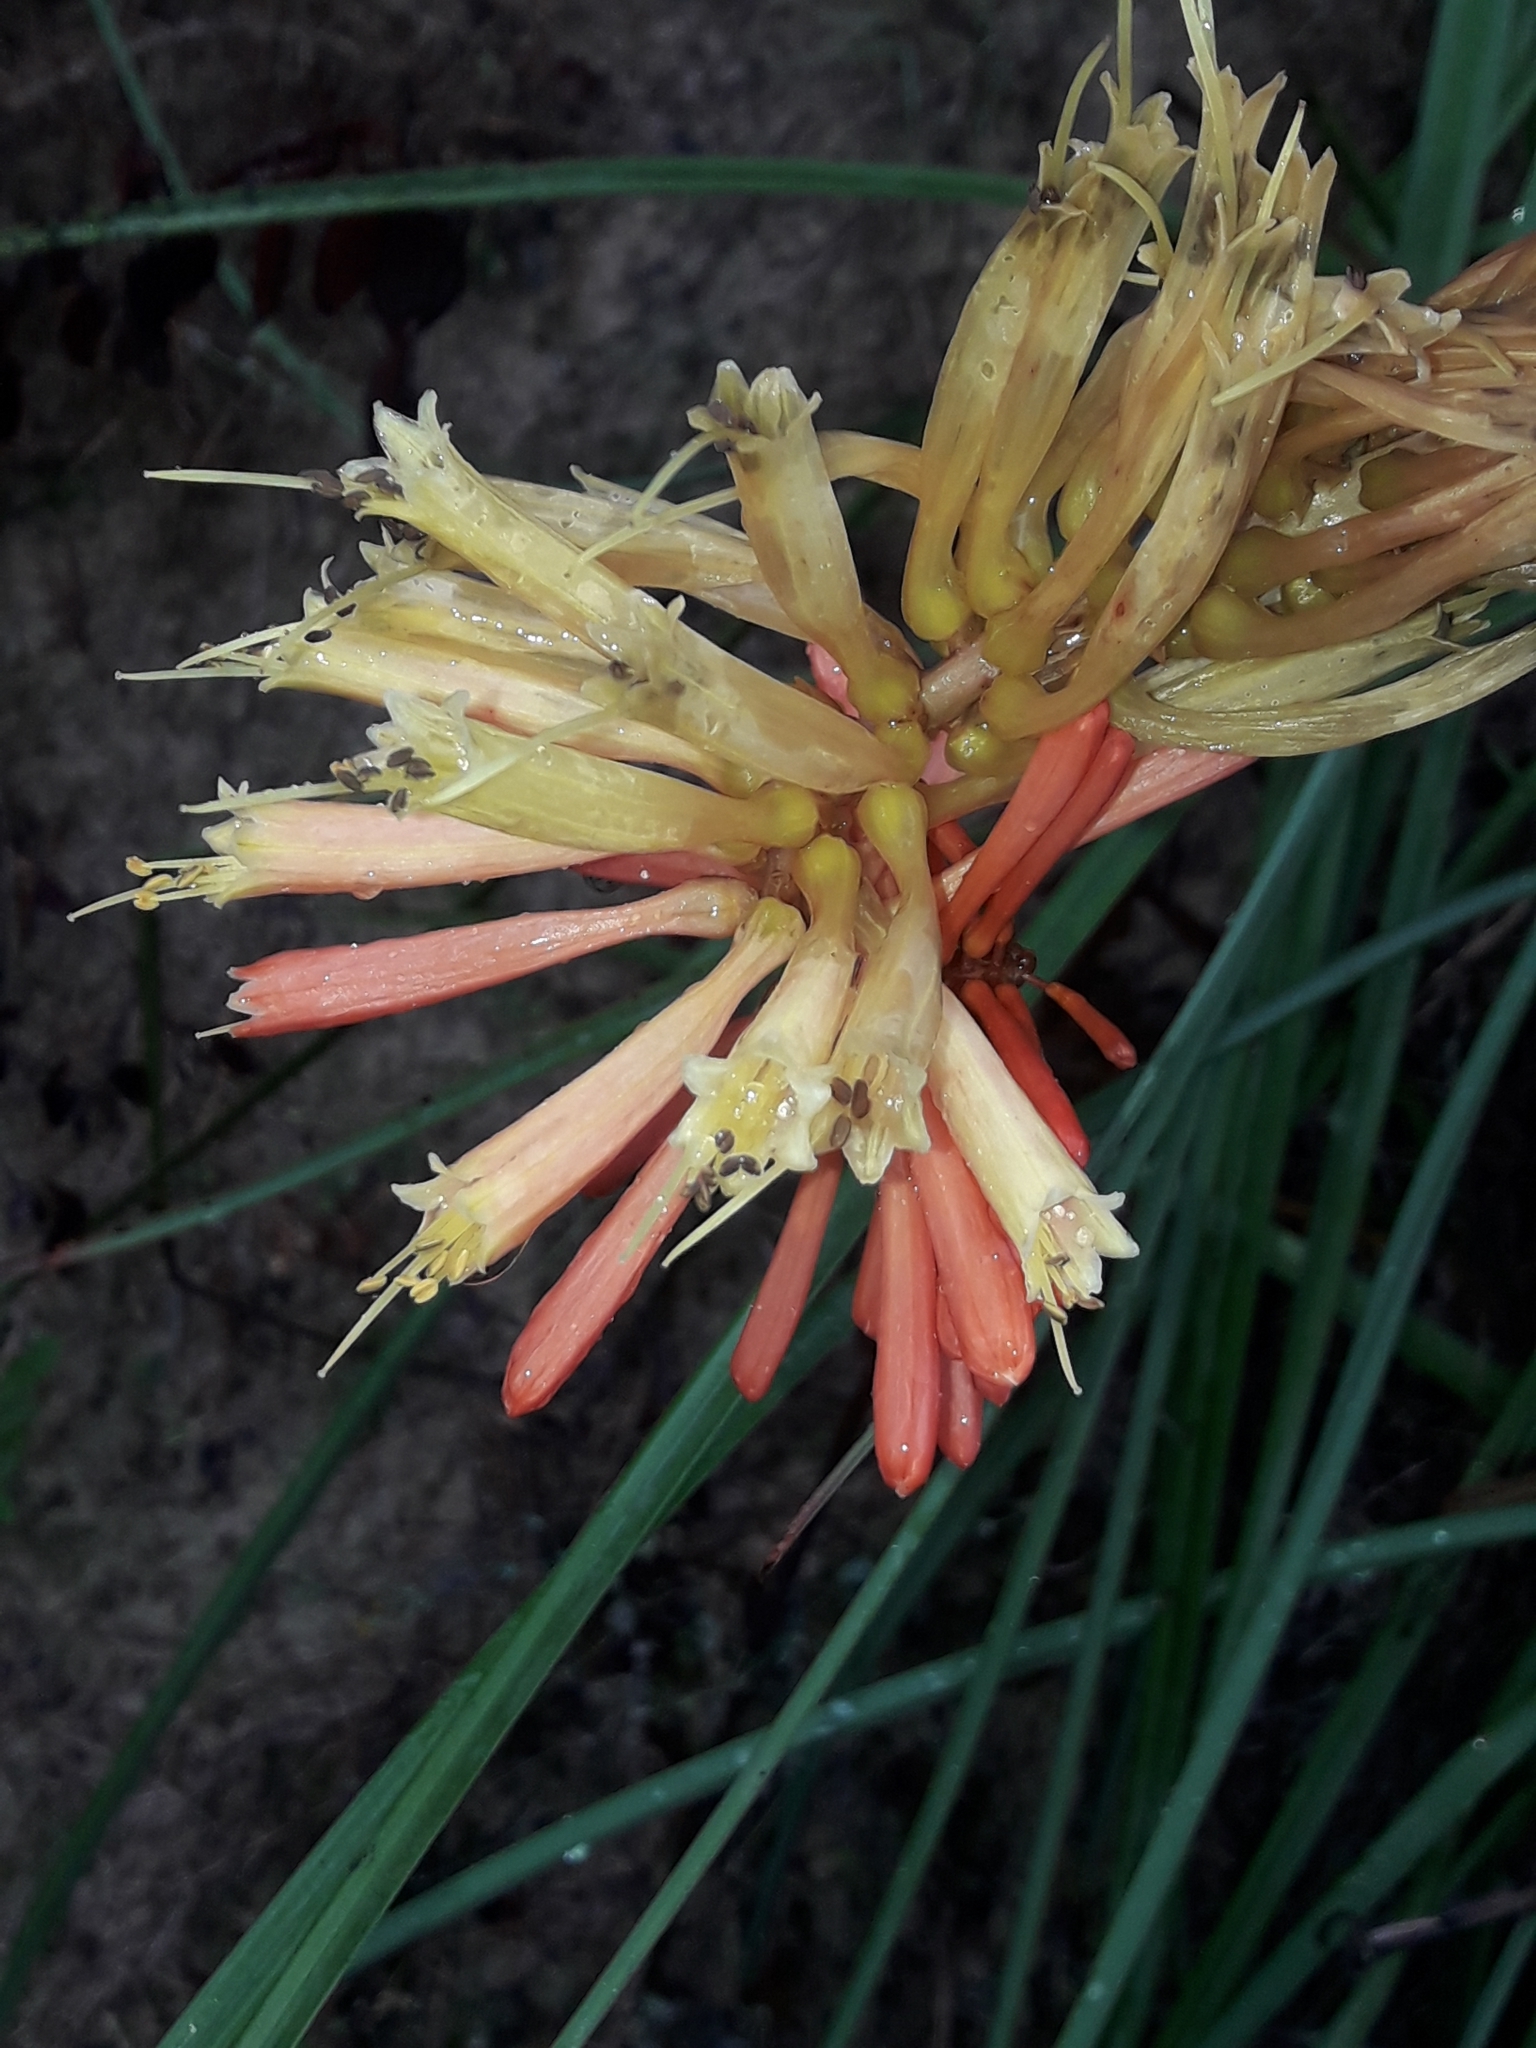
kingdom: Plantae
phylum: Tracheophyta
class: Liliopsida
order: Asparagales
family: Asphodelaceae
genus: Kniphofia
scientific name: Kniphofia uvaria
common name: Red-hot-poker
